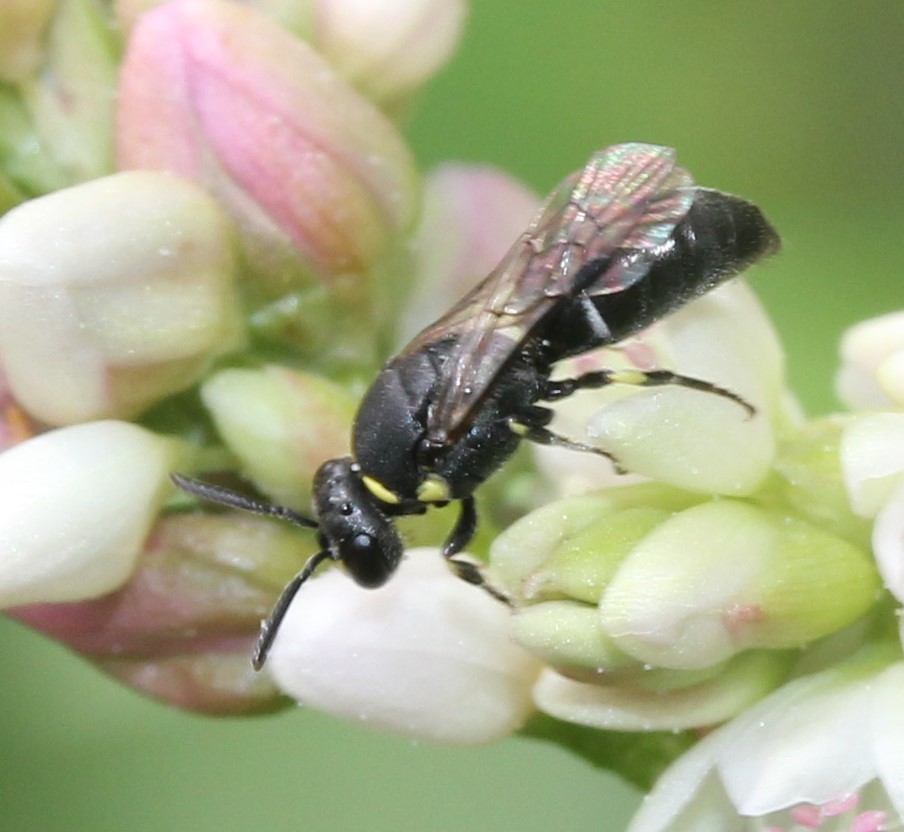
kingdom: Animalia
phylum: Arthropoda
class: Insecta
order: Hymenoptera
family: Colletidae
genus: Hylaeus
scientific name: Hylaeus modestus
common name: Yellow-faced bee
